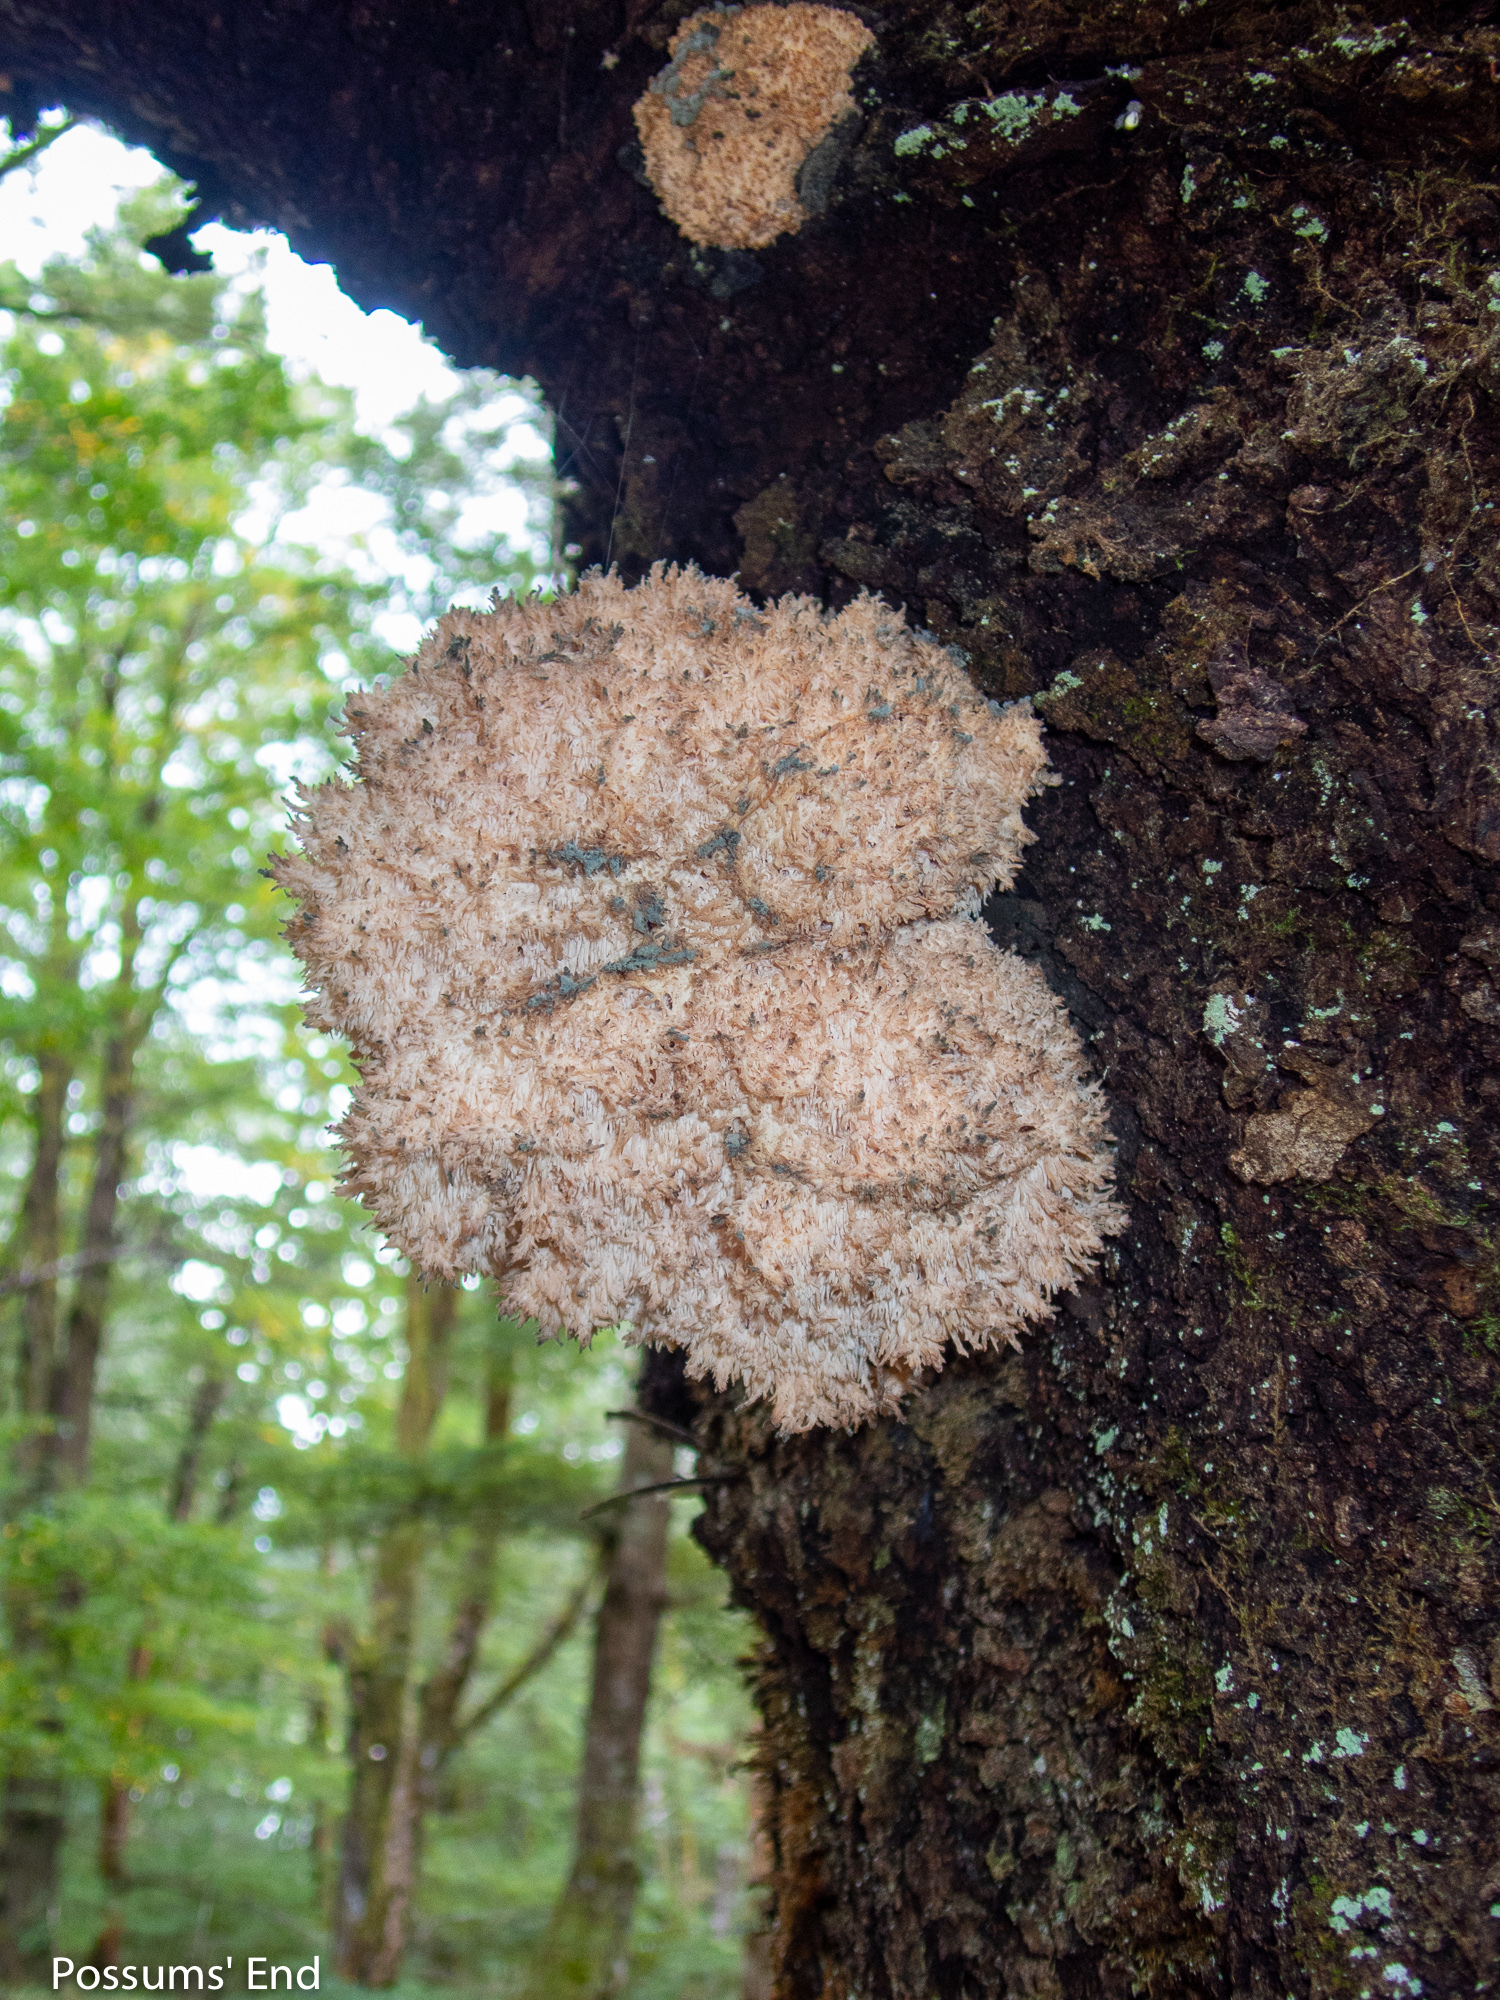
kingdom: Fungi
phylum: Basidiomycota
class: Agaricomycetes
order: Russulales
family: Hericiaceae
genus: Hericium
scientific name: Hericium novae-zealandiae
